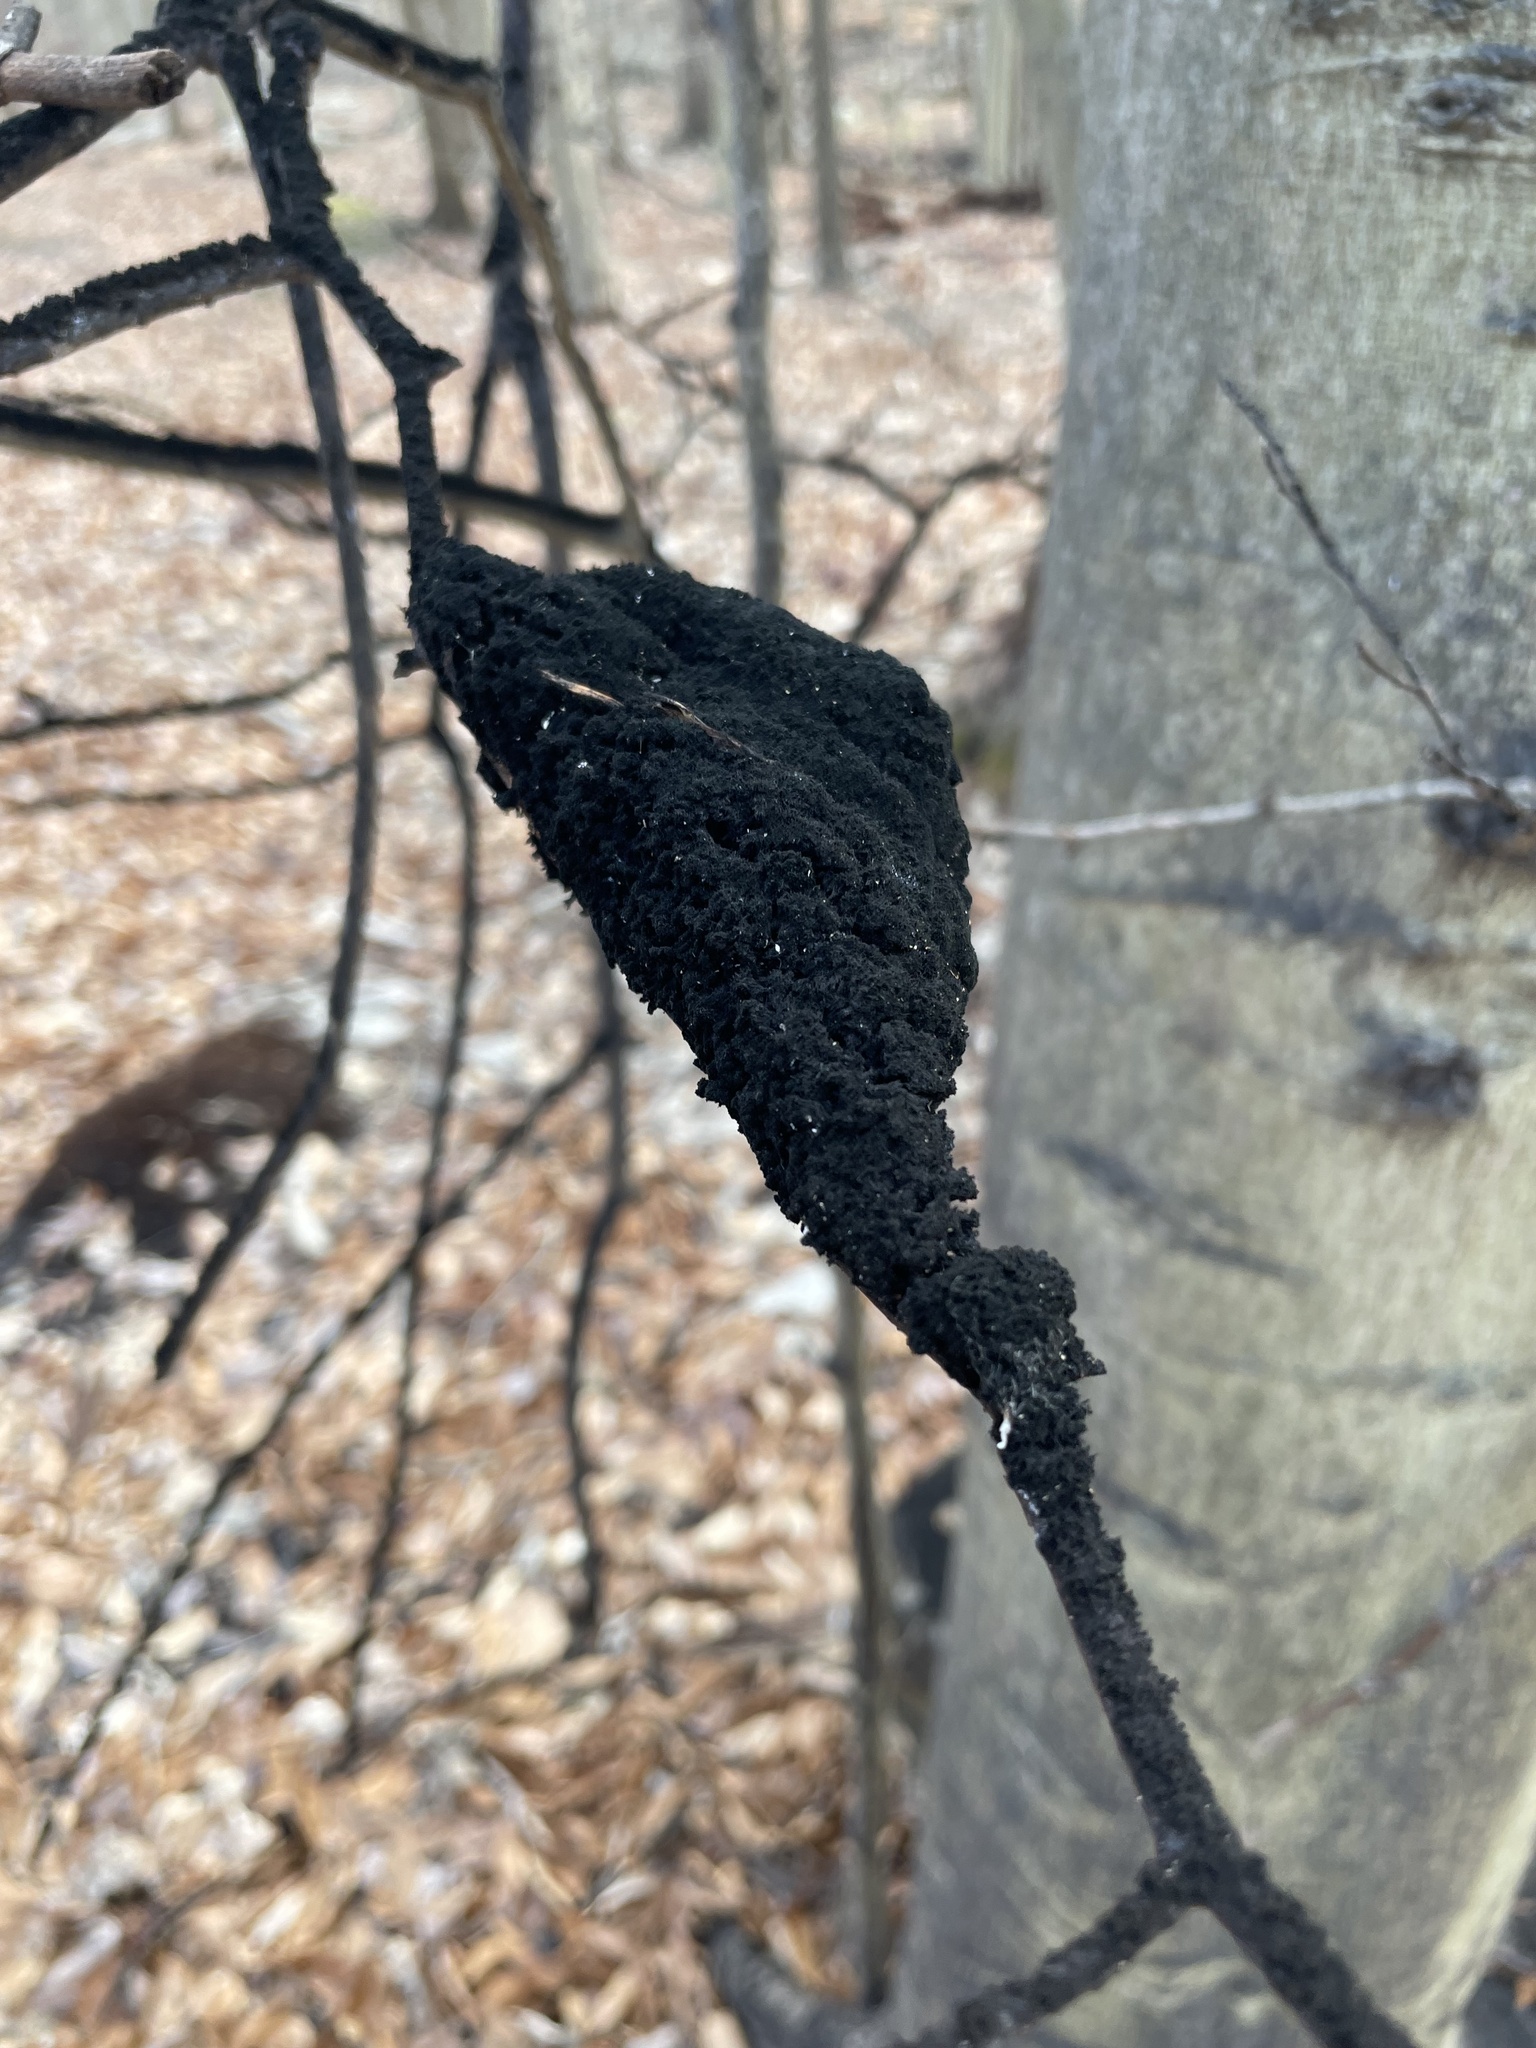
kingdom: Fungi
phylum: Ascomycota
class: Dothideomycetes
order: Capnodiales
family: Capnodiaceae
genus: Scorias
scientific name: Scorias spongiosa
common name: Black sooty mold
